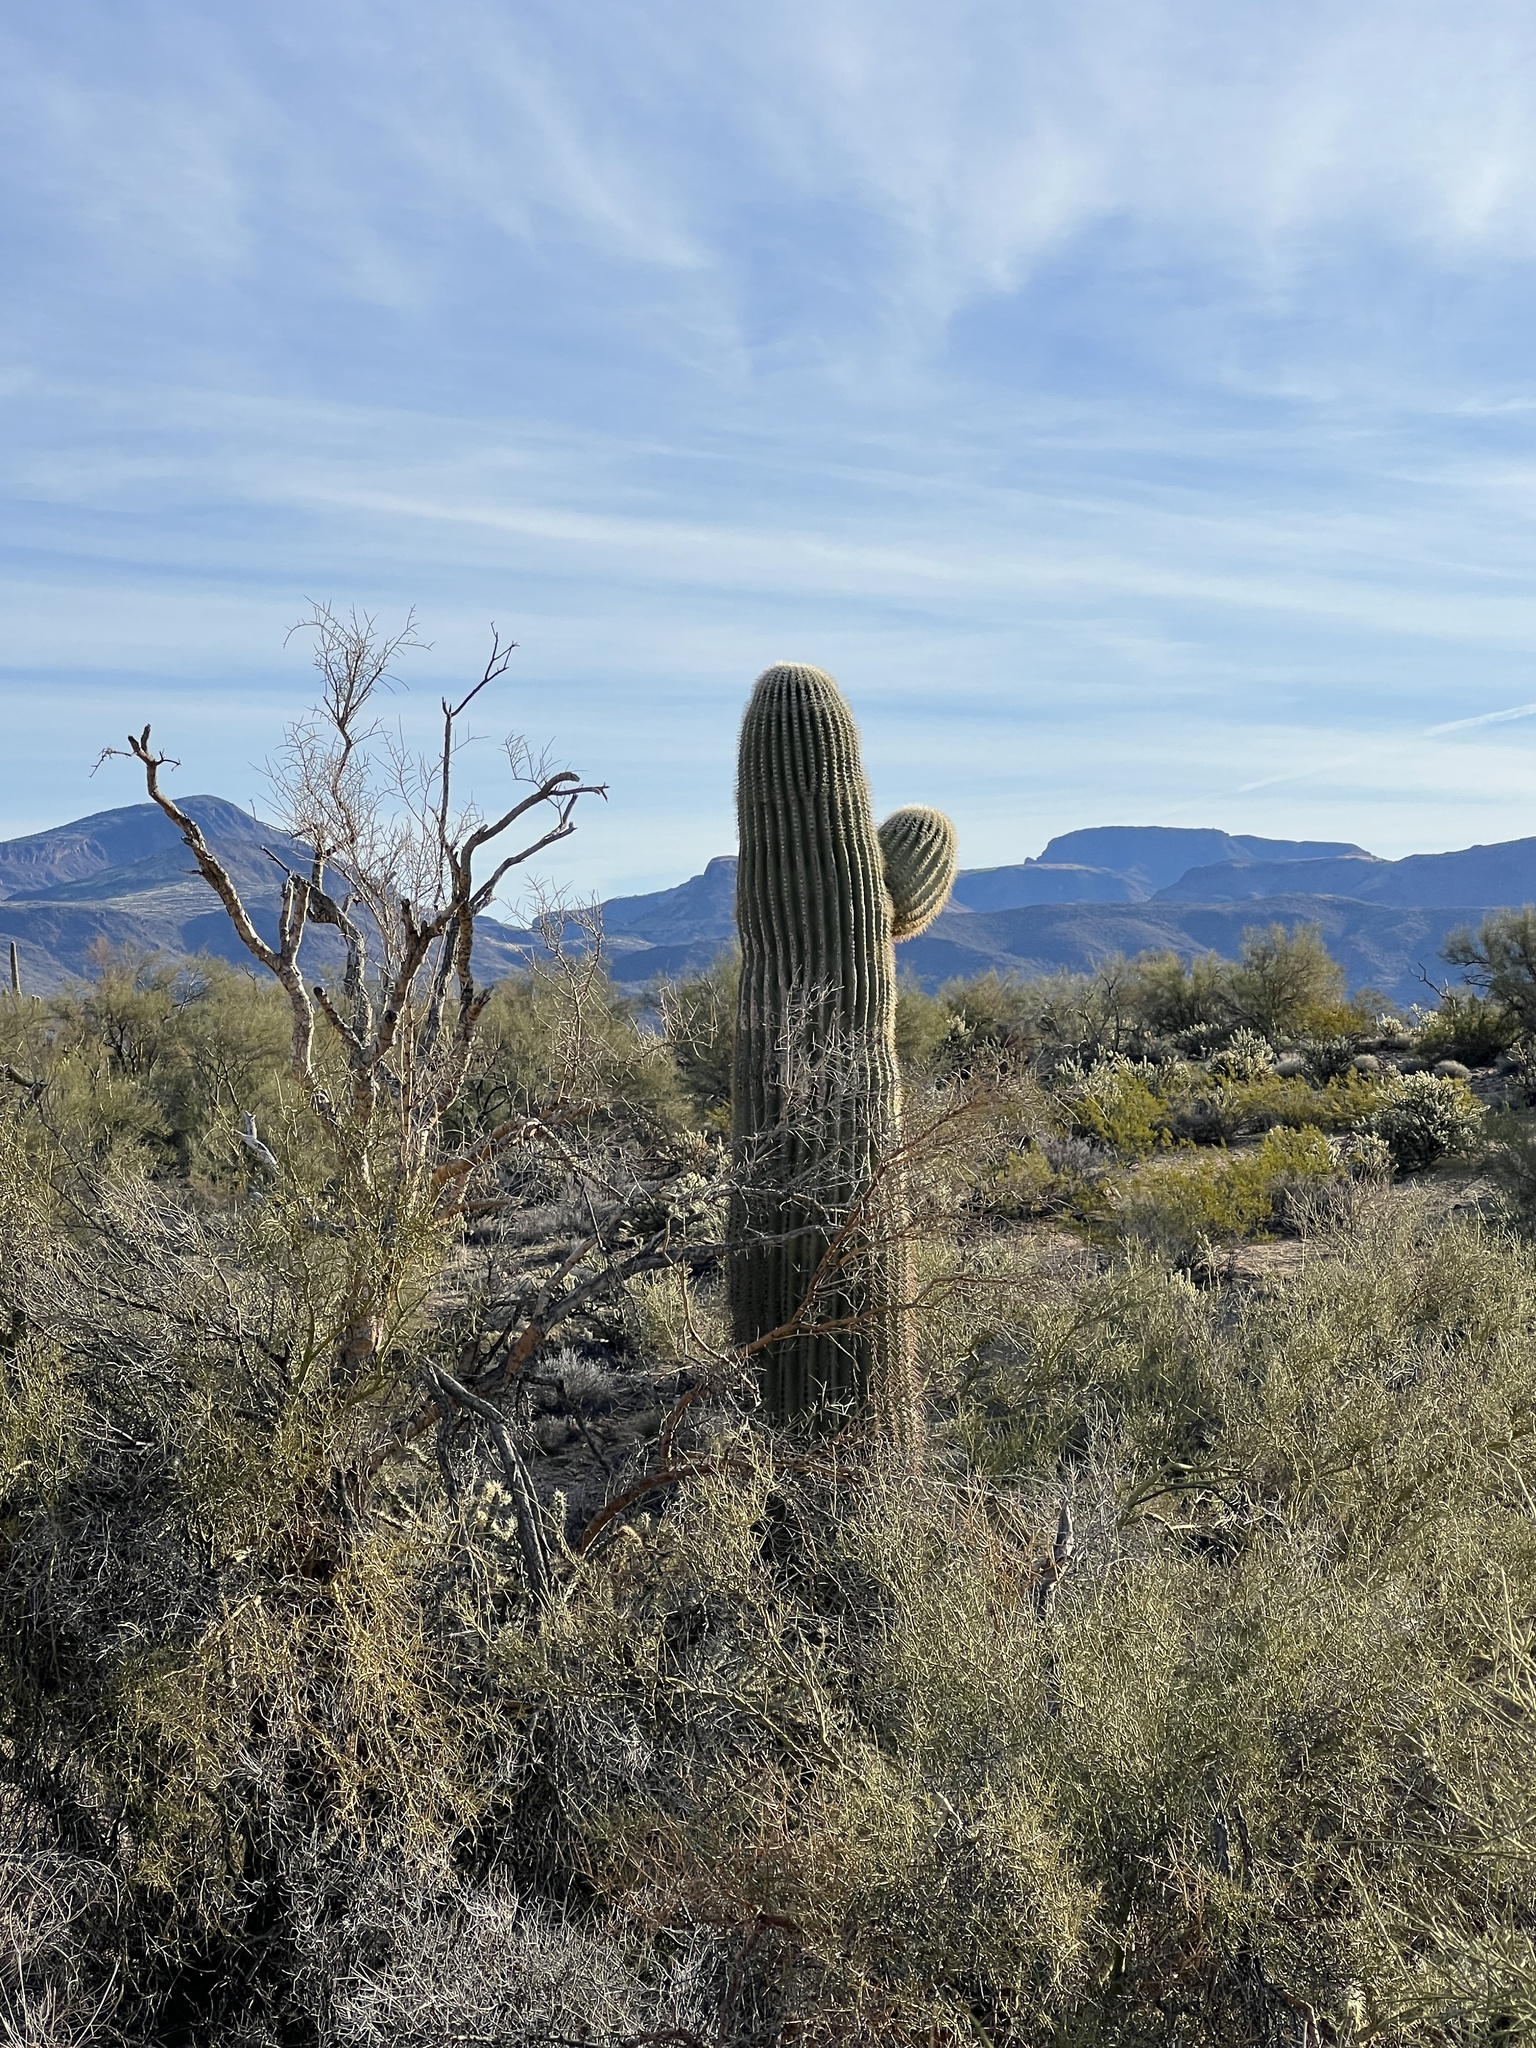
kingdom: Plantae
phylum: Tracheophyta
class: Magnoliopsida
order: Caryophyllales
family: Cactaceae
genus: Carnegiea
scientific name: Carnegiea gigantea
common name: Saguaro
